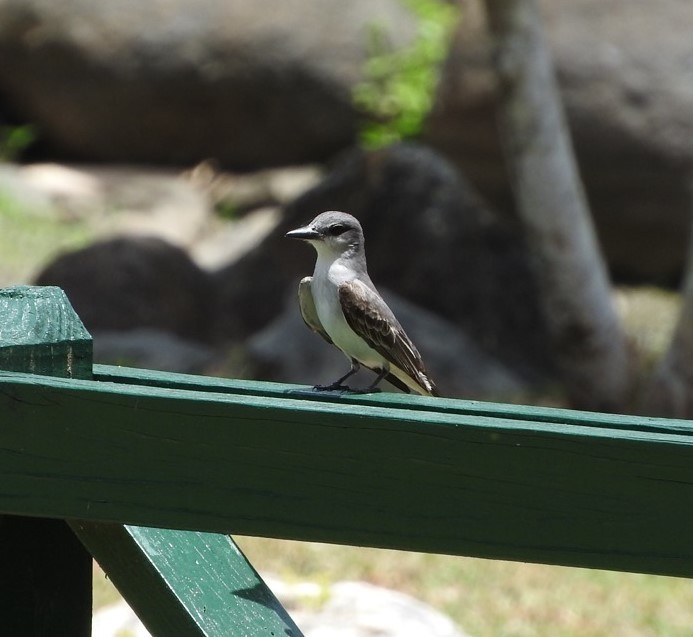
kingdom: Animalia
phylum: Chordata
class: Aves
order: Passeriformes
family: Tyrannidae
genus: Tyrannus
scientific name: Tyrannus dominicensis
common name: Gray kingbird
